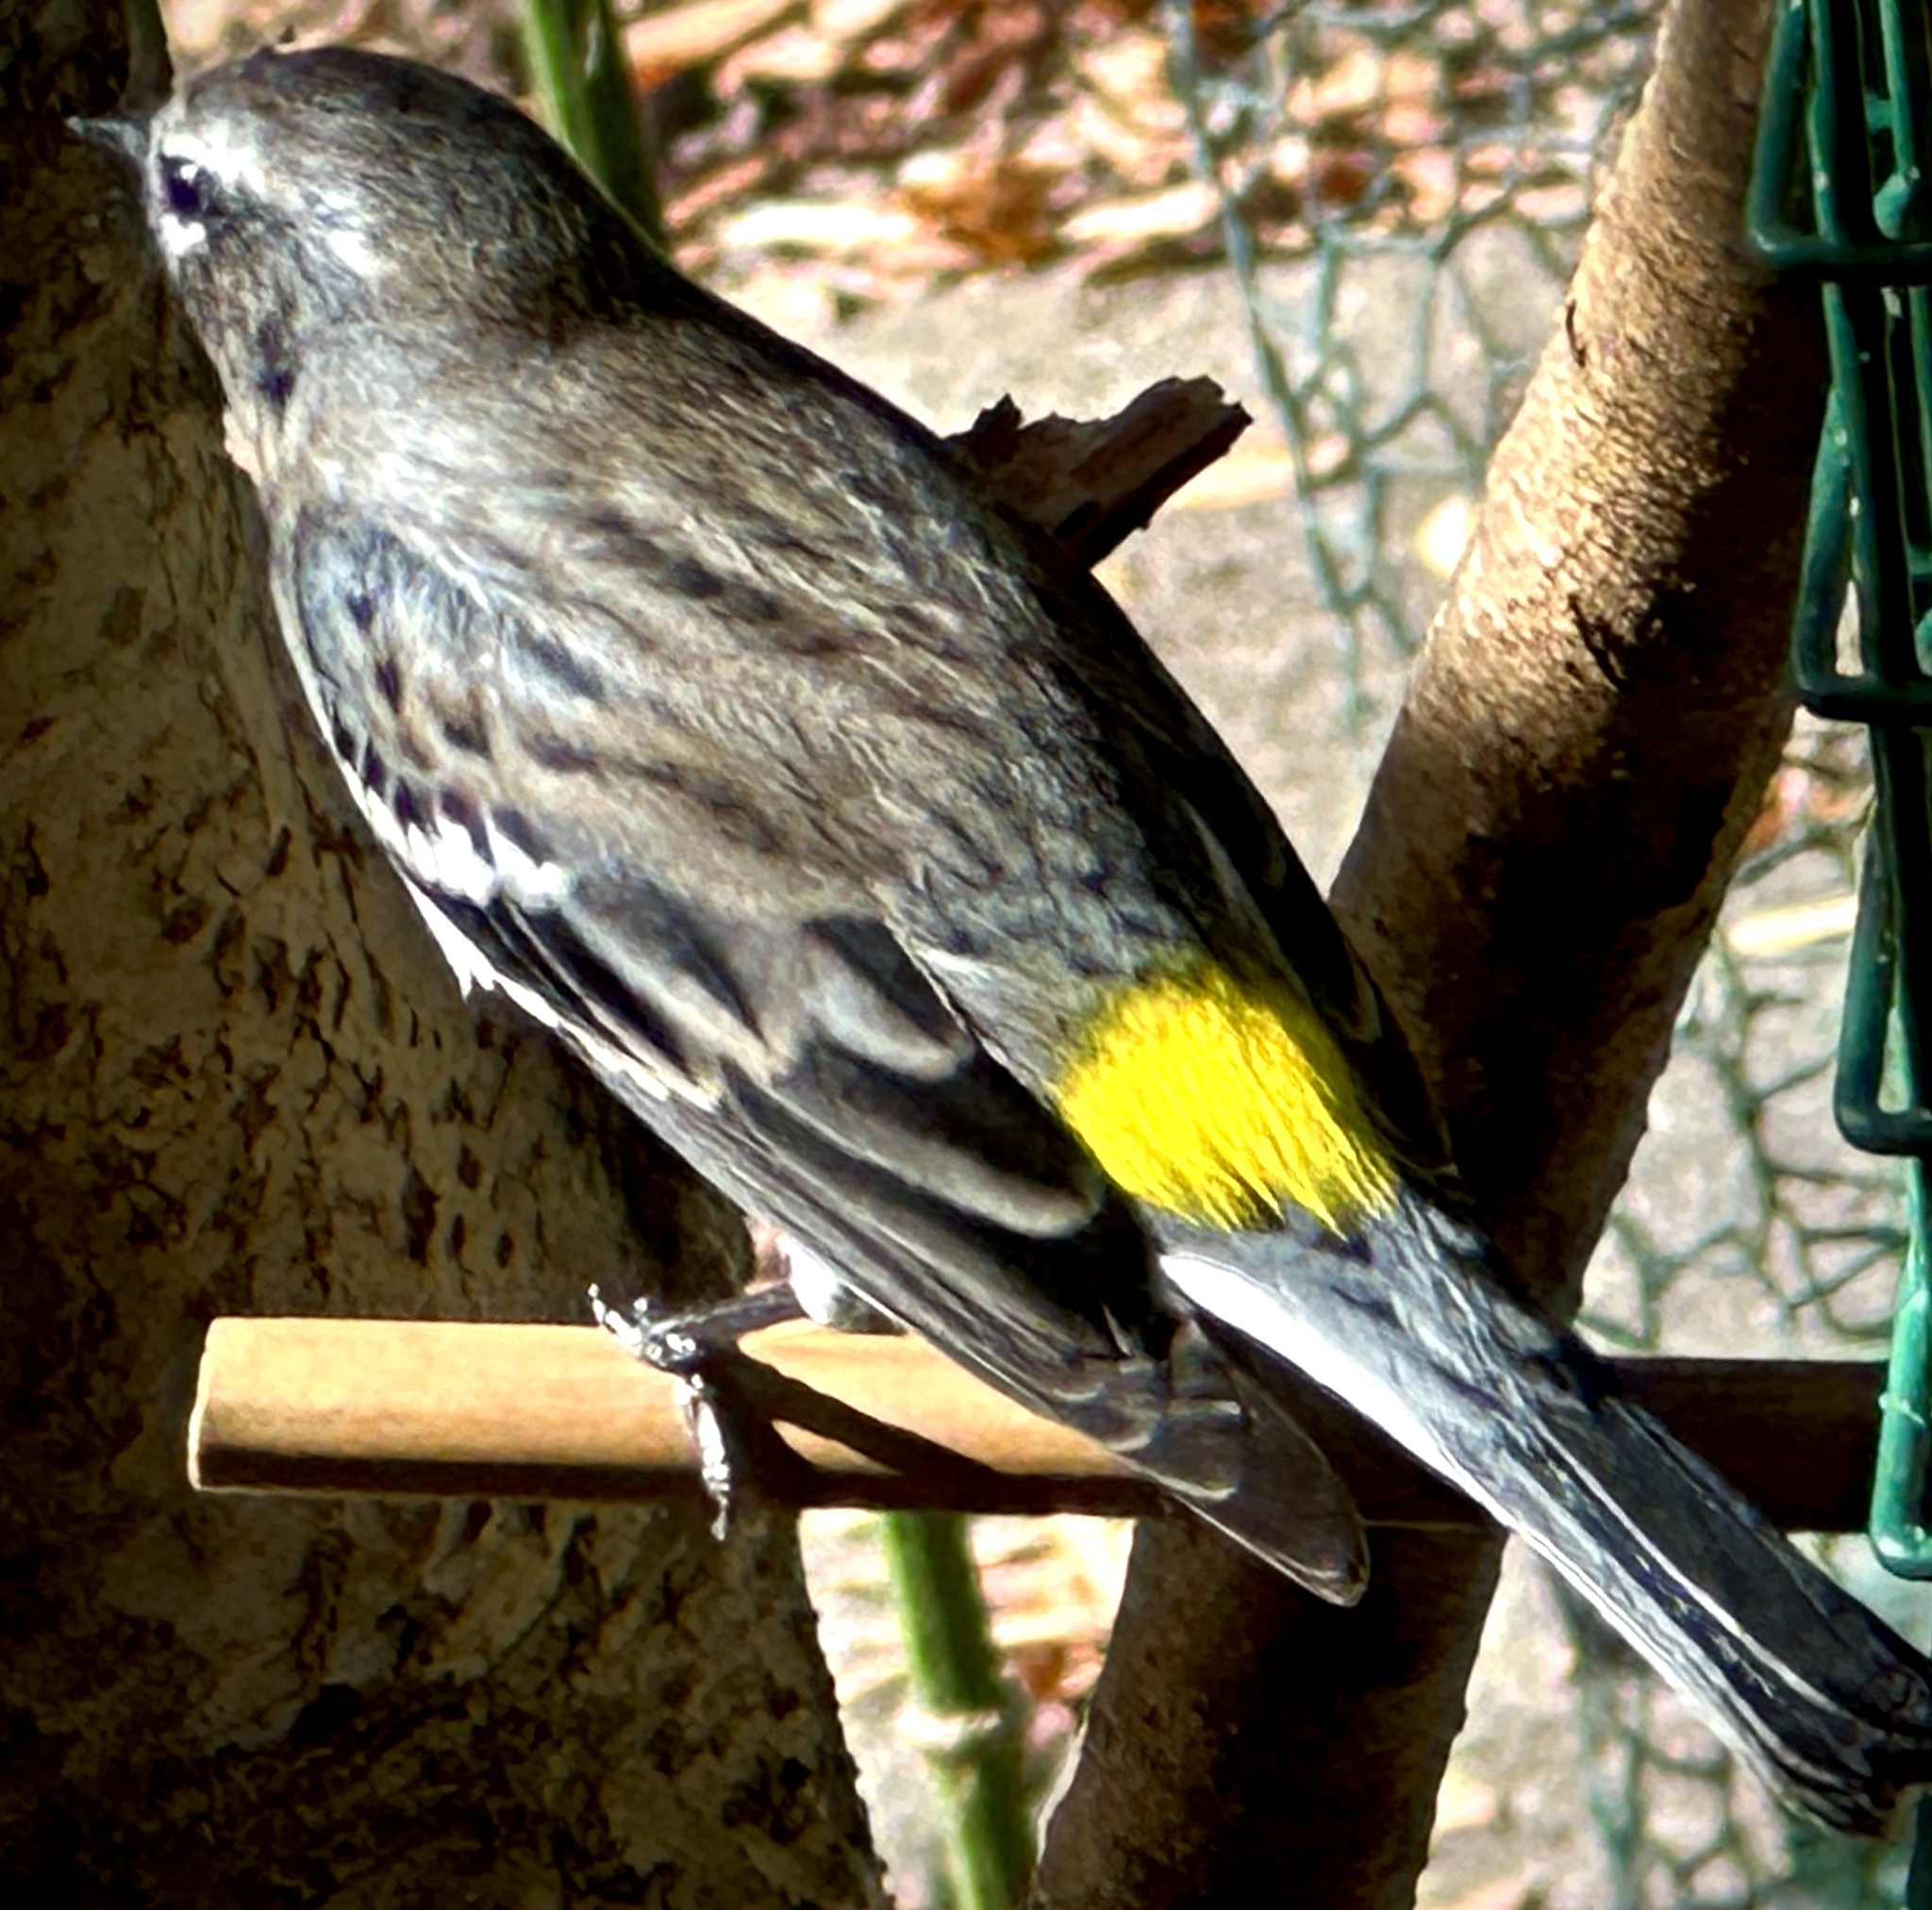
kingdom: Animalia
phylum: Chordata
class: Aves
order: Passeriformes
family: Parulidae
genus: Setophaga
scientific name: Setophaga coronata
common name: Myrtle warbler
